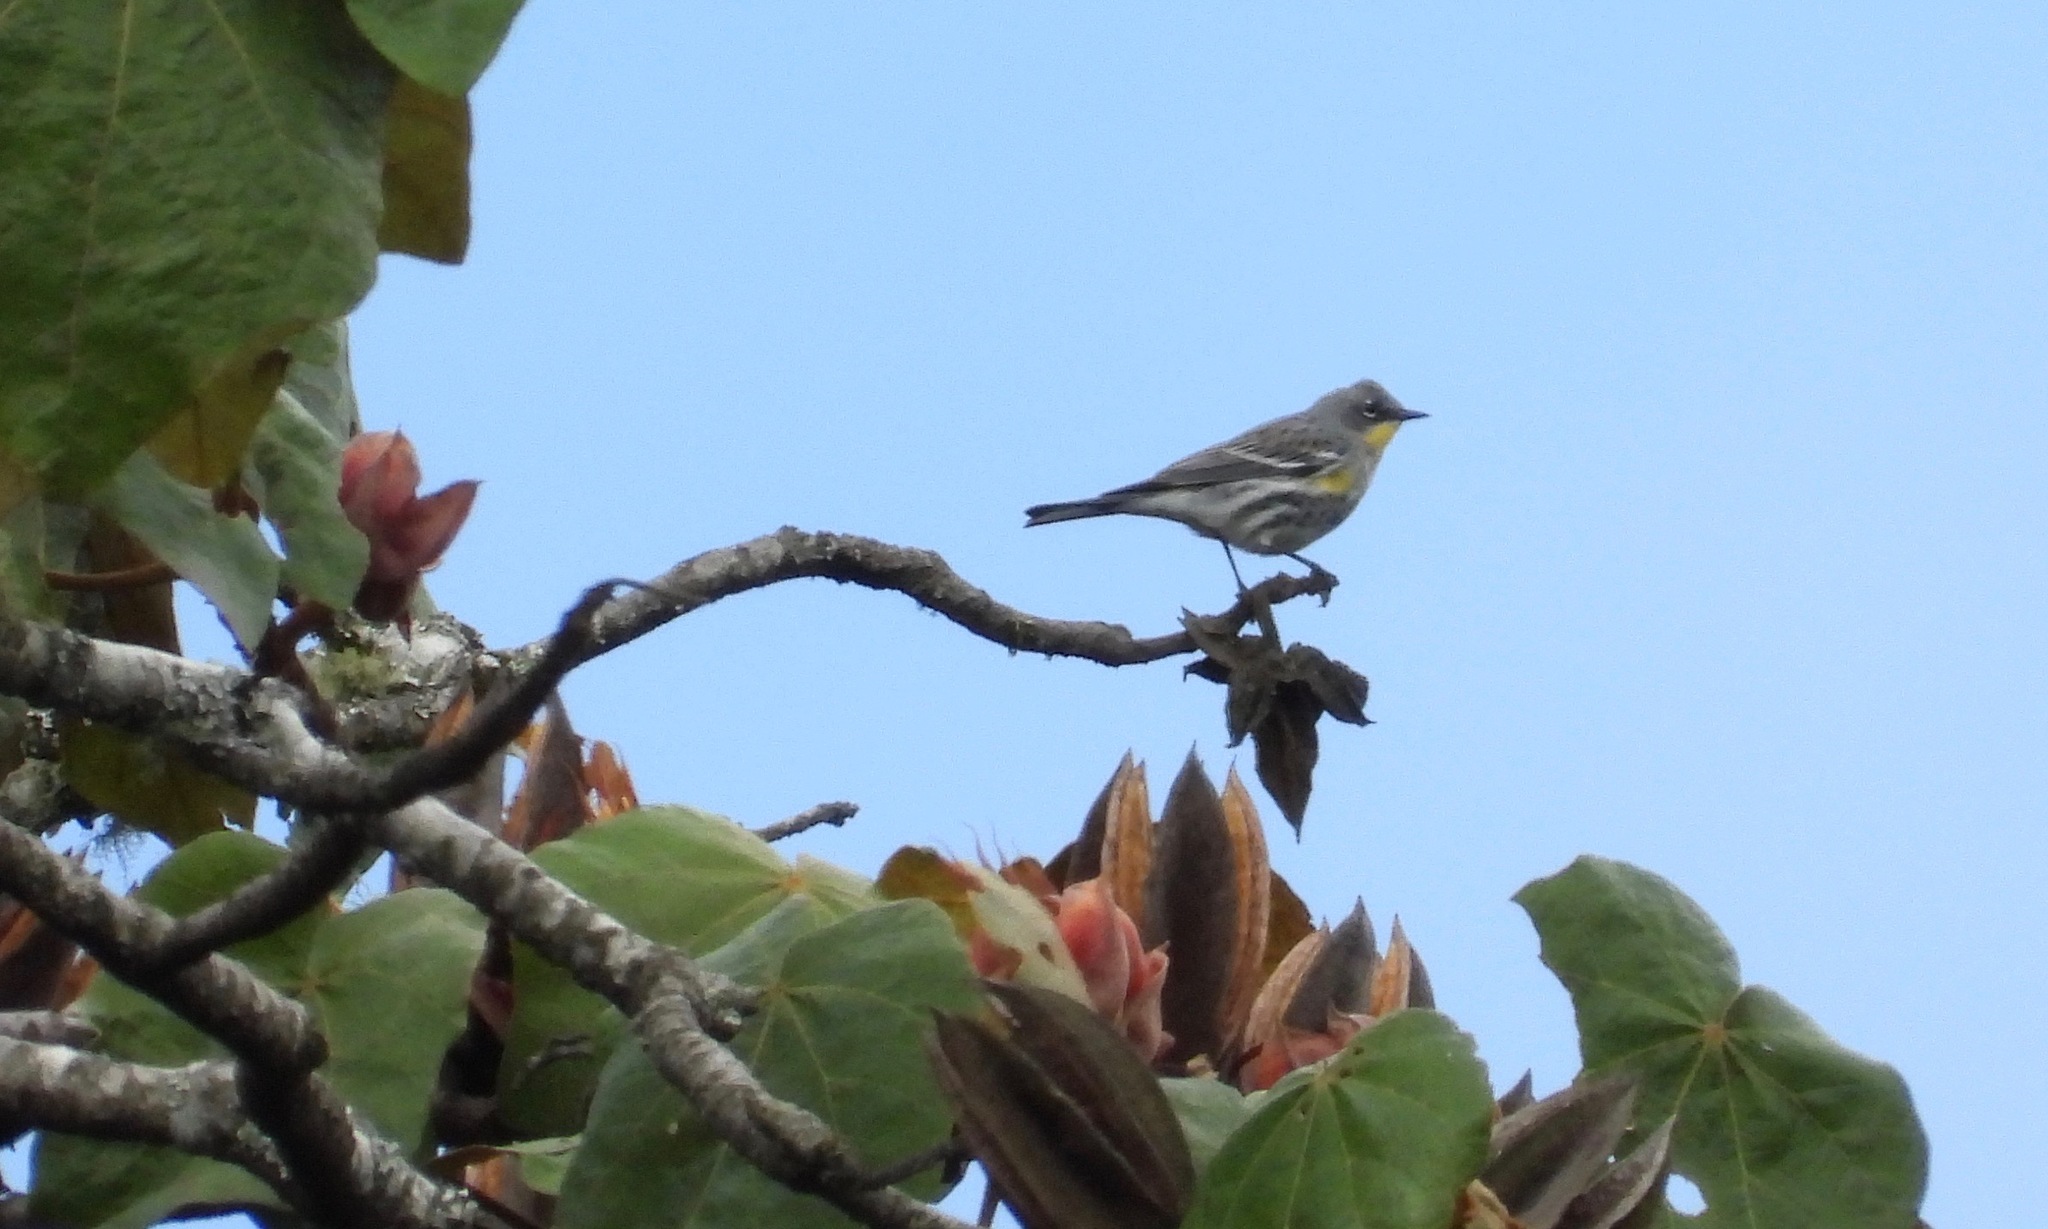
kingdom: Animalia
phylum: Chordata
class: Aves
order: Passeriformes
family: Parulidae
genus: Setophaga
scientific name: Setophaga auduboni
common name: Audubon's warbler
